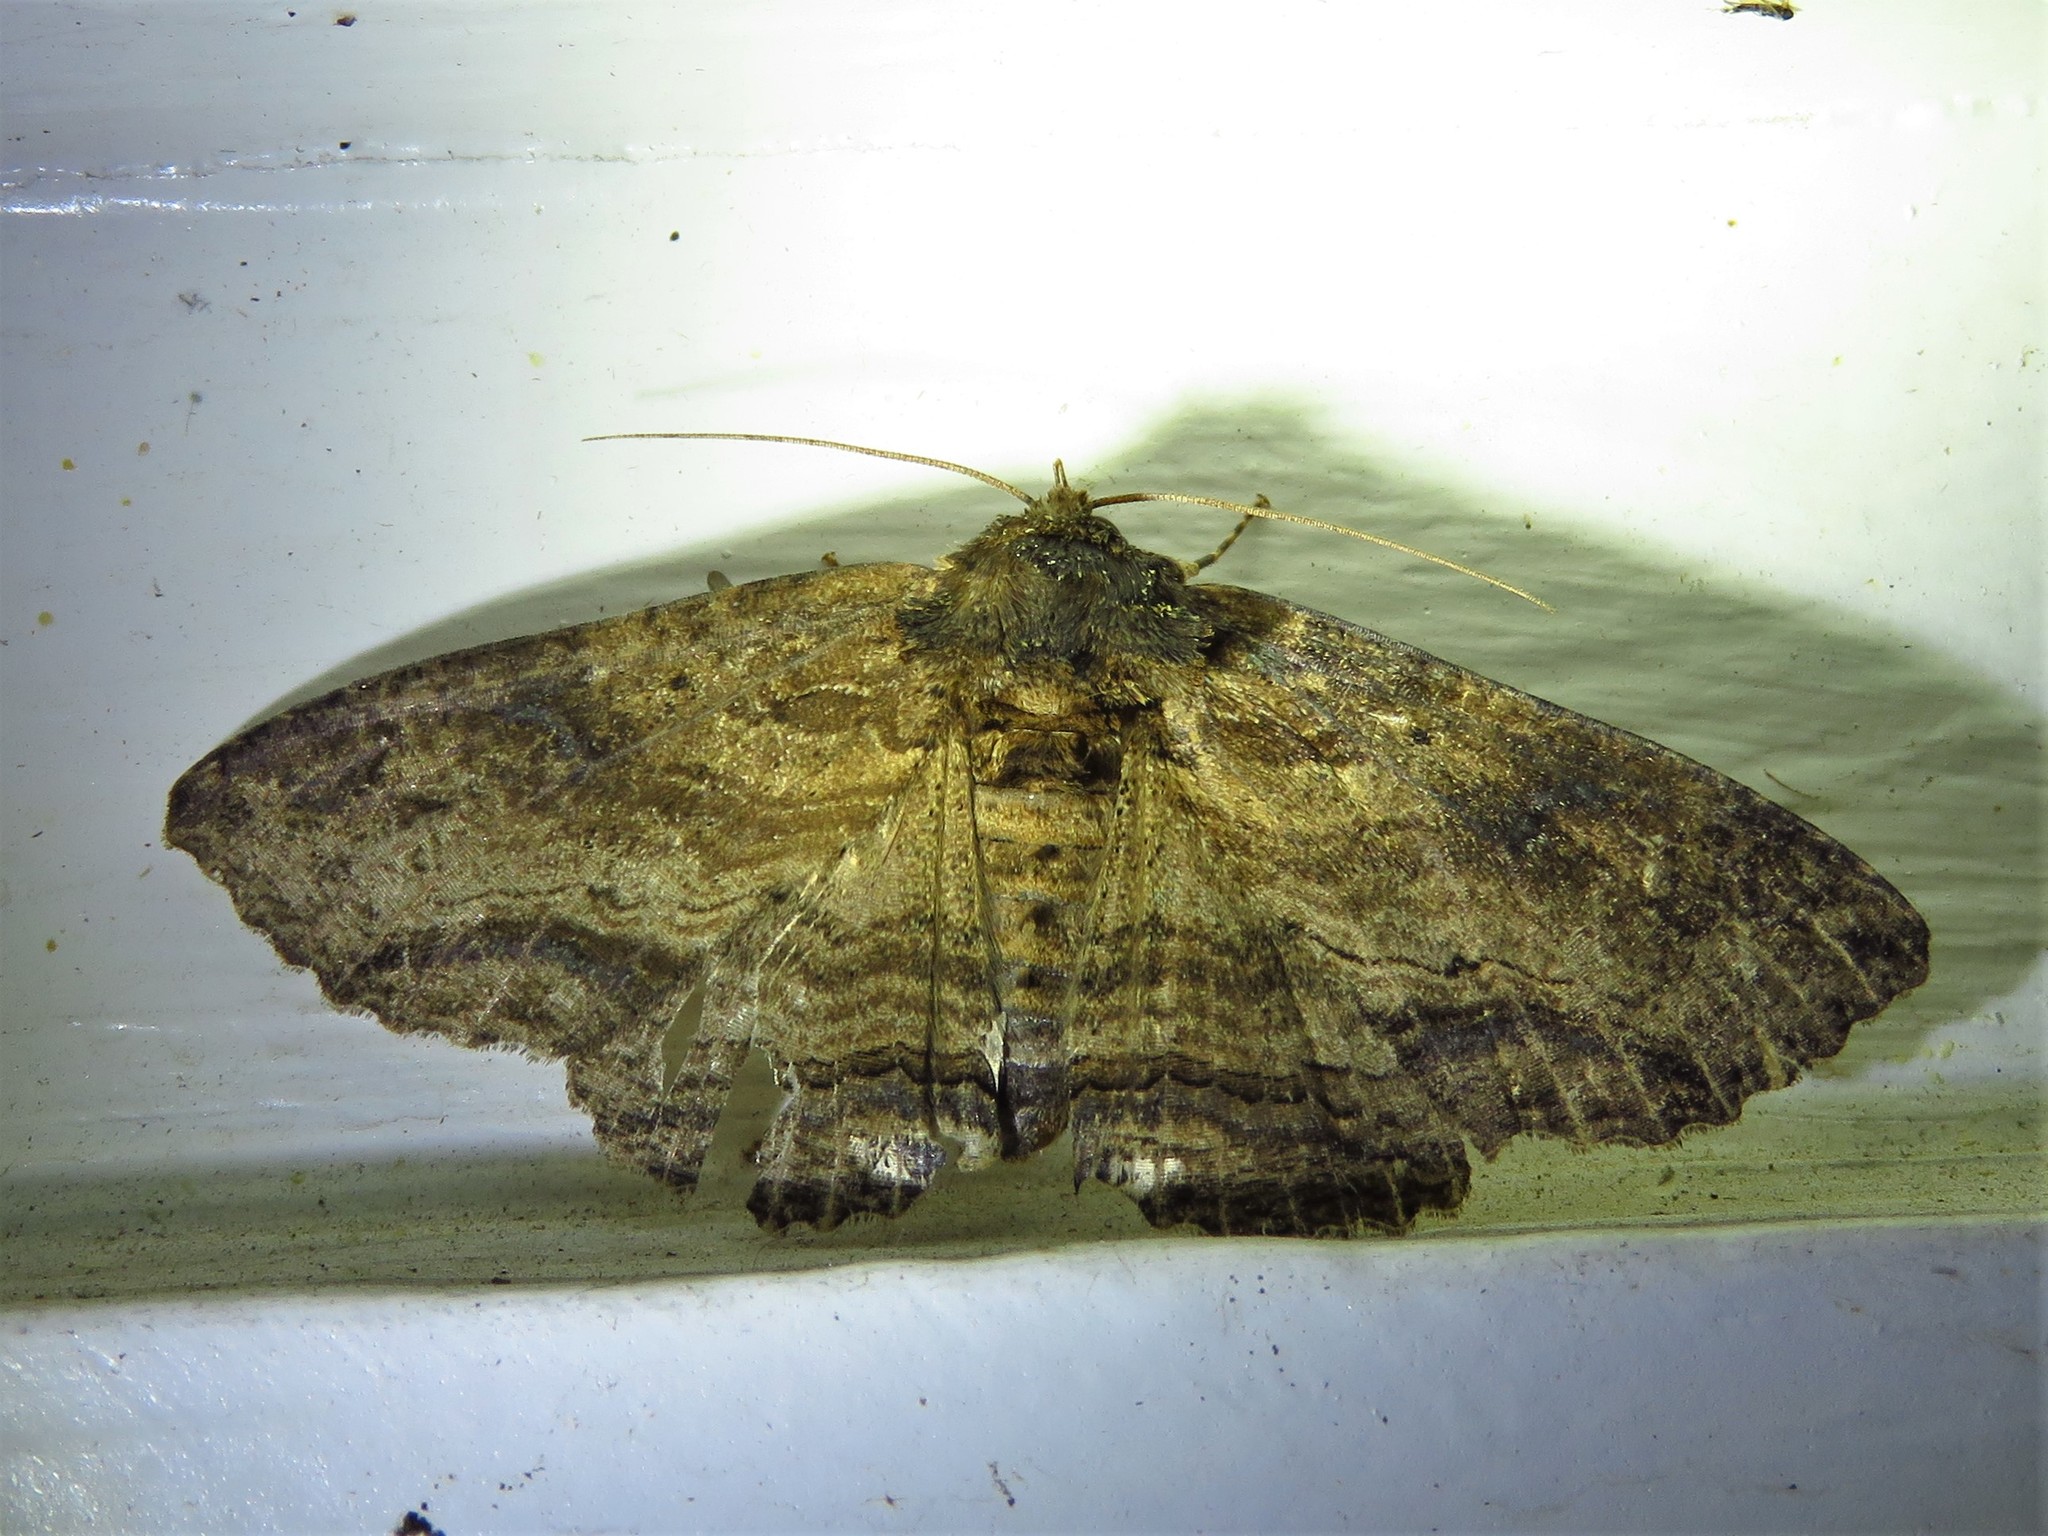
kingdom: Animalia
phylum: Arthropoda
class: Insecta
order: Lepidoptera
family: Erebidae
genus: Zale
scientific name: Zale lunata
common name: Lunate zale moth
